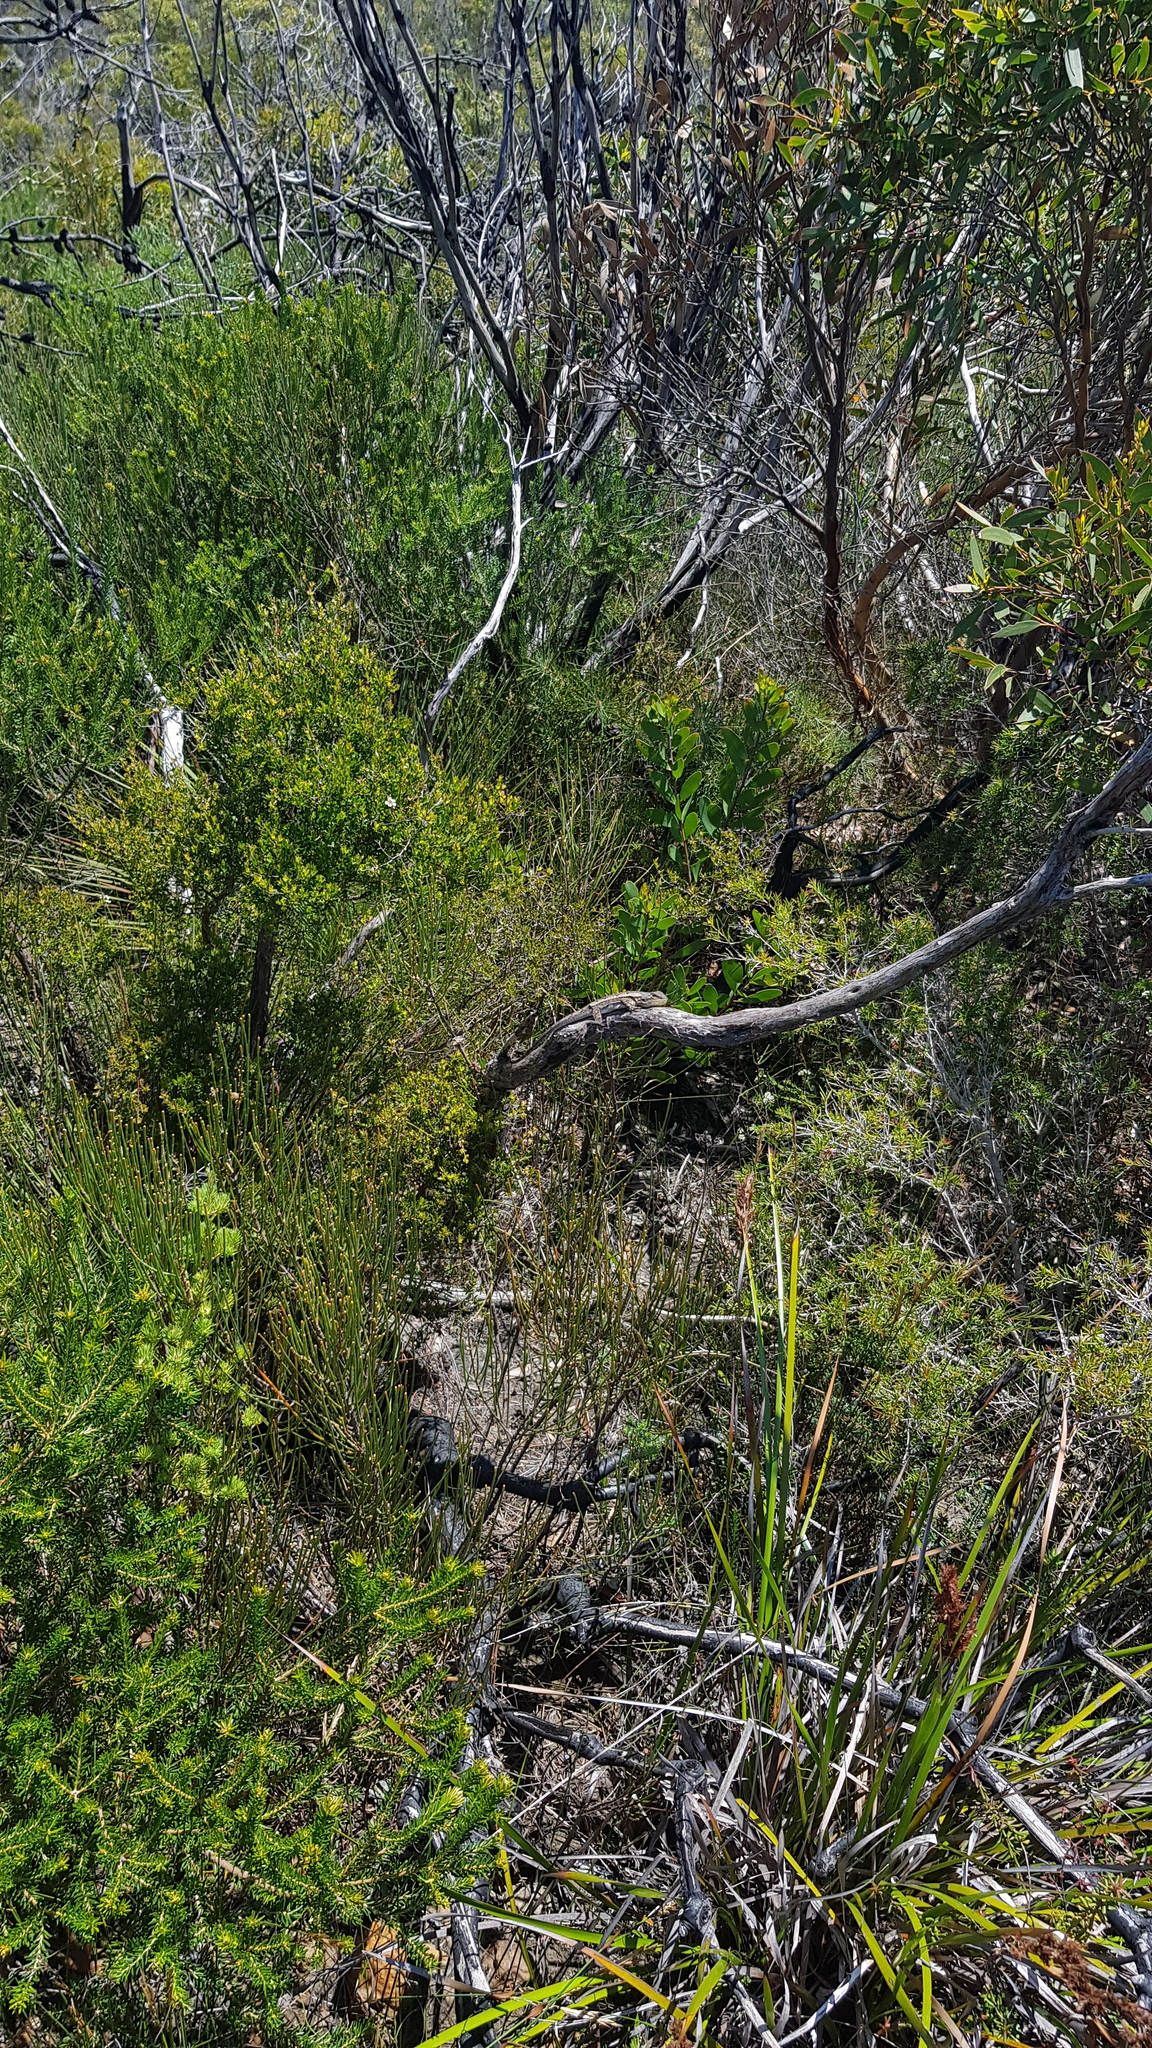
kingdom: Animalia
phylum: Chordata
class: Squamata
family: Agamidae
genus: Amphibolurus
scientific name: Amphibolurus muricatus
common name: Jacky lizard
